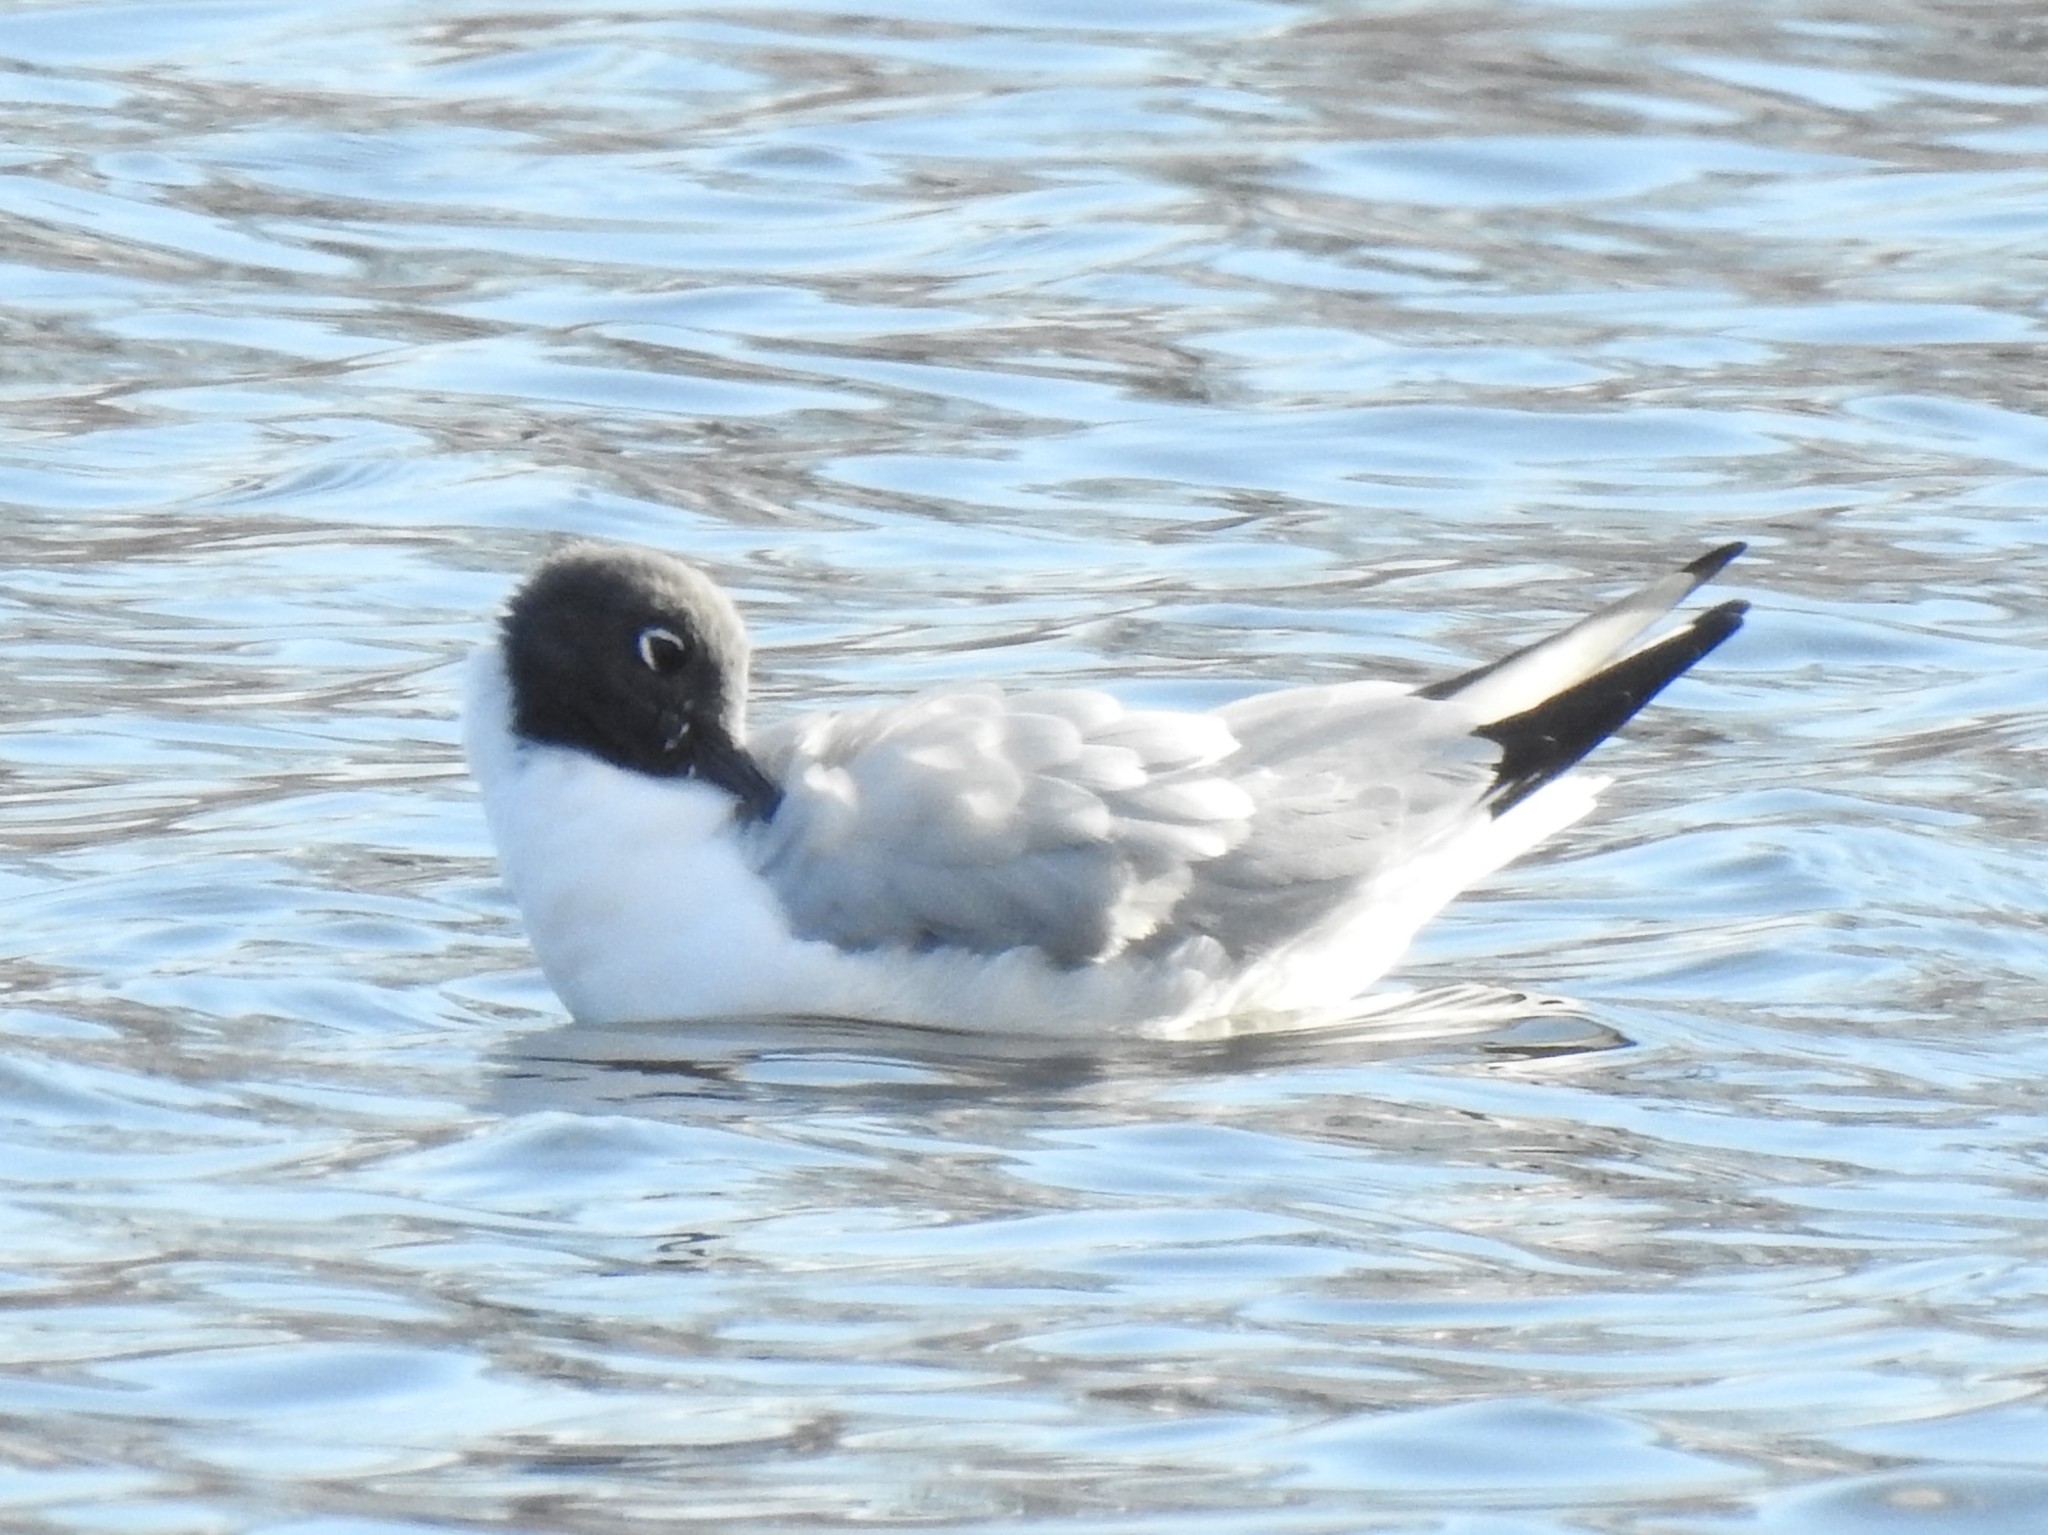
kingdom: Animalia
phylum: Chordata
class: Aves
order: Charadriiformes
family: Laridae
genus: Chroicocephalus
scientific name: Chroicocephalus philadelphia
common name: Bonaparte's gull
